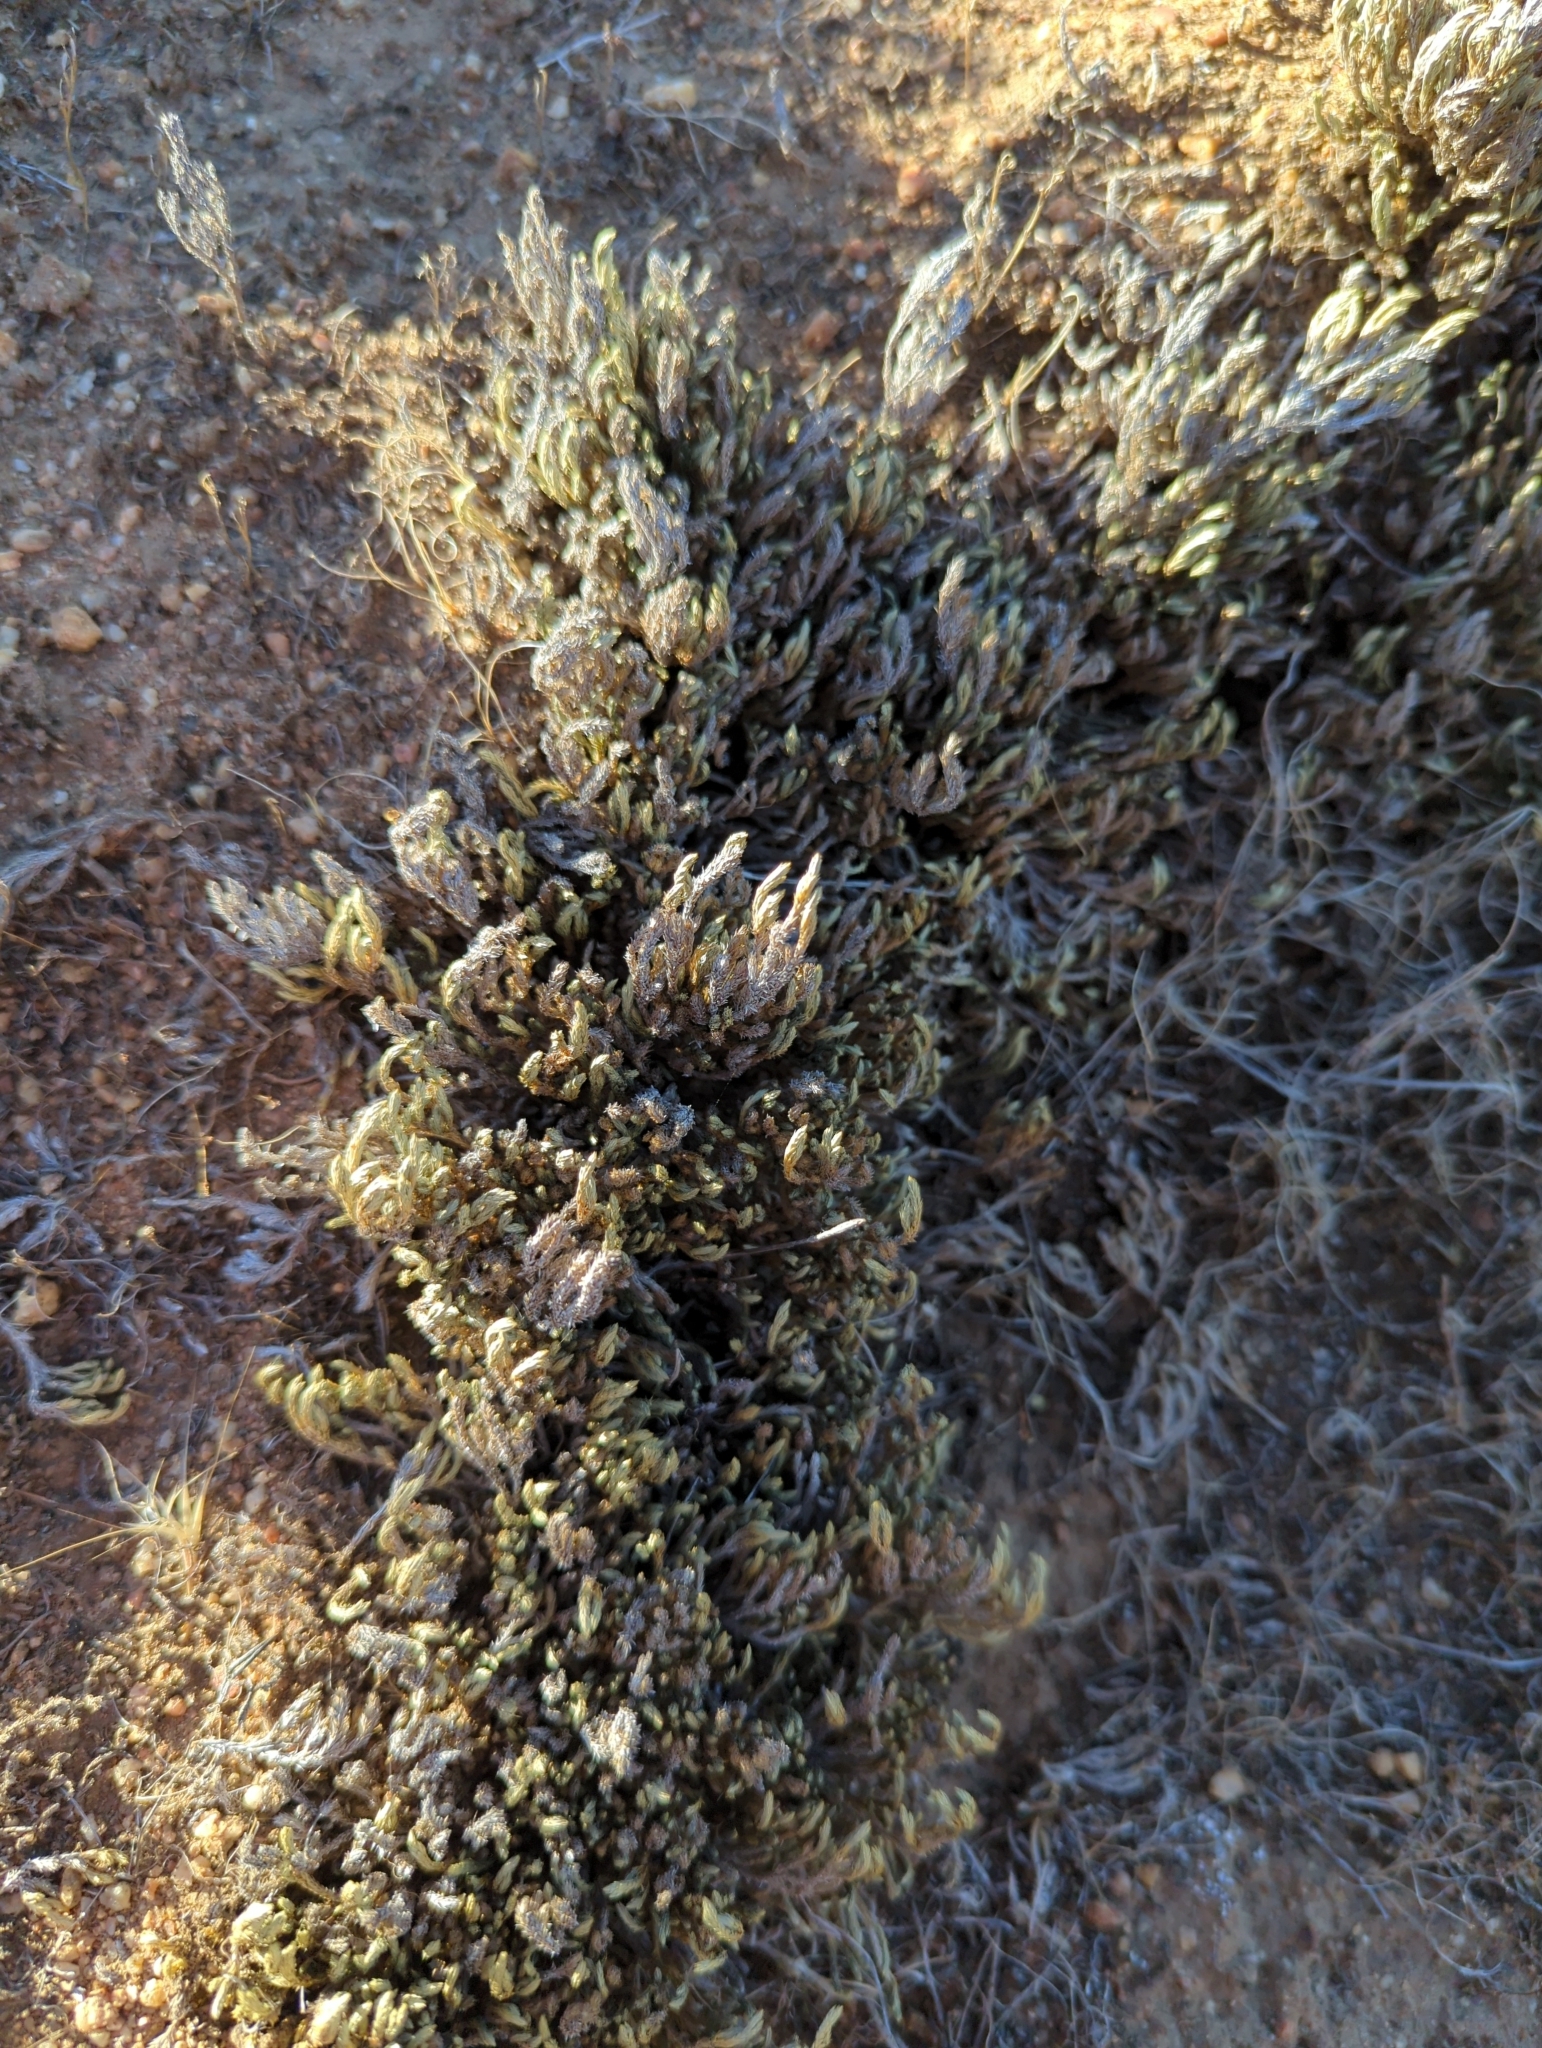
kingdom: Plantae
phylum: Tracheophyta
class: Lycopodiopsida
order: Selaginellales
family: Selaginellaceae
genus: Selaginella
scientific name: Selaginella bigelovii
